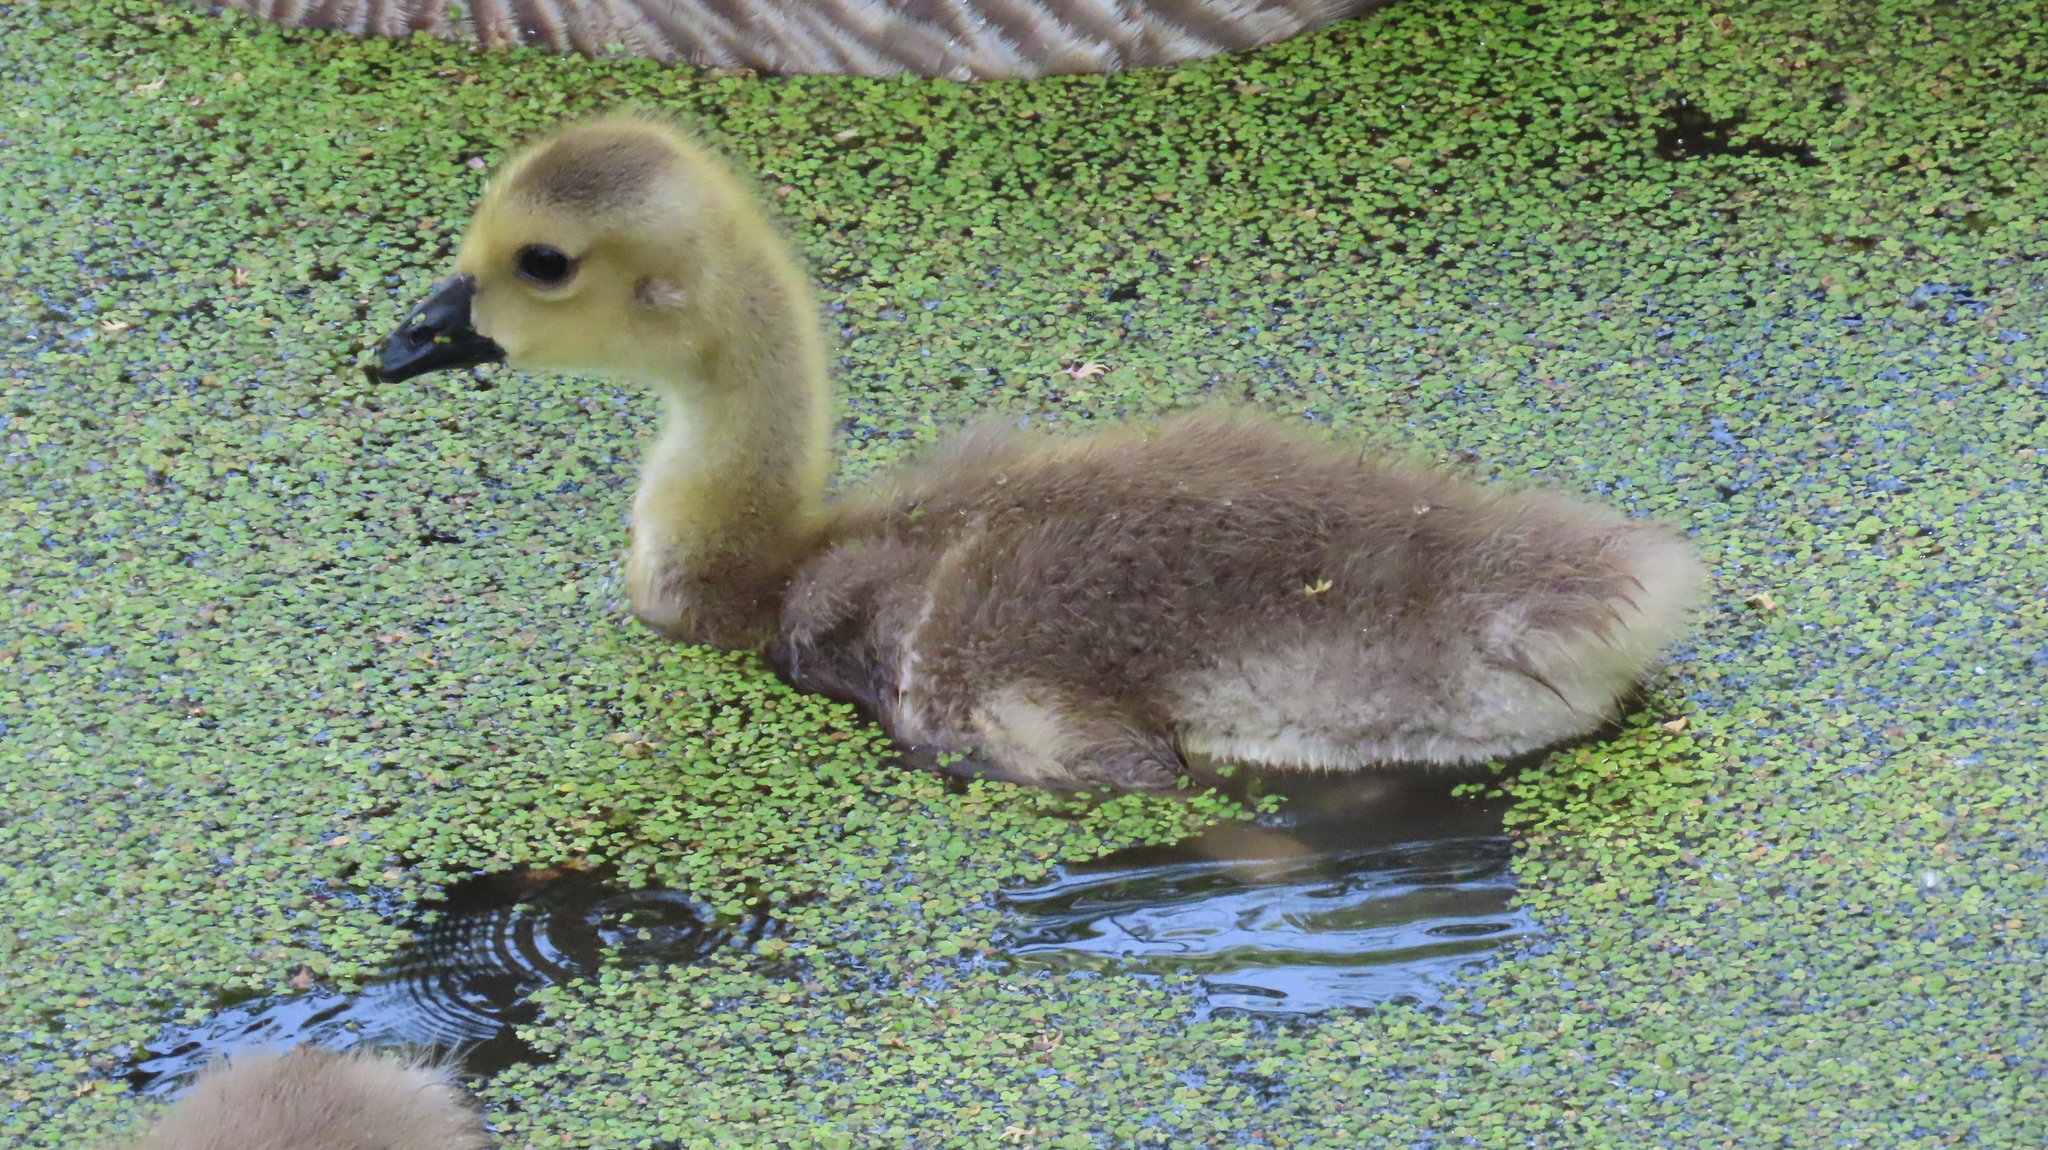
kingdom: Animalia
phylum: Chordata
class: Aves
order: Anseriformes
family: Anatidae
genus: Branta
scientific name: Branta canadensis
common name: Canada goose
